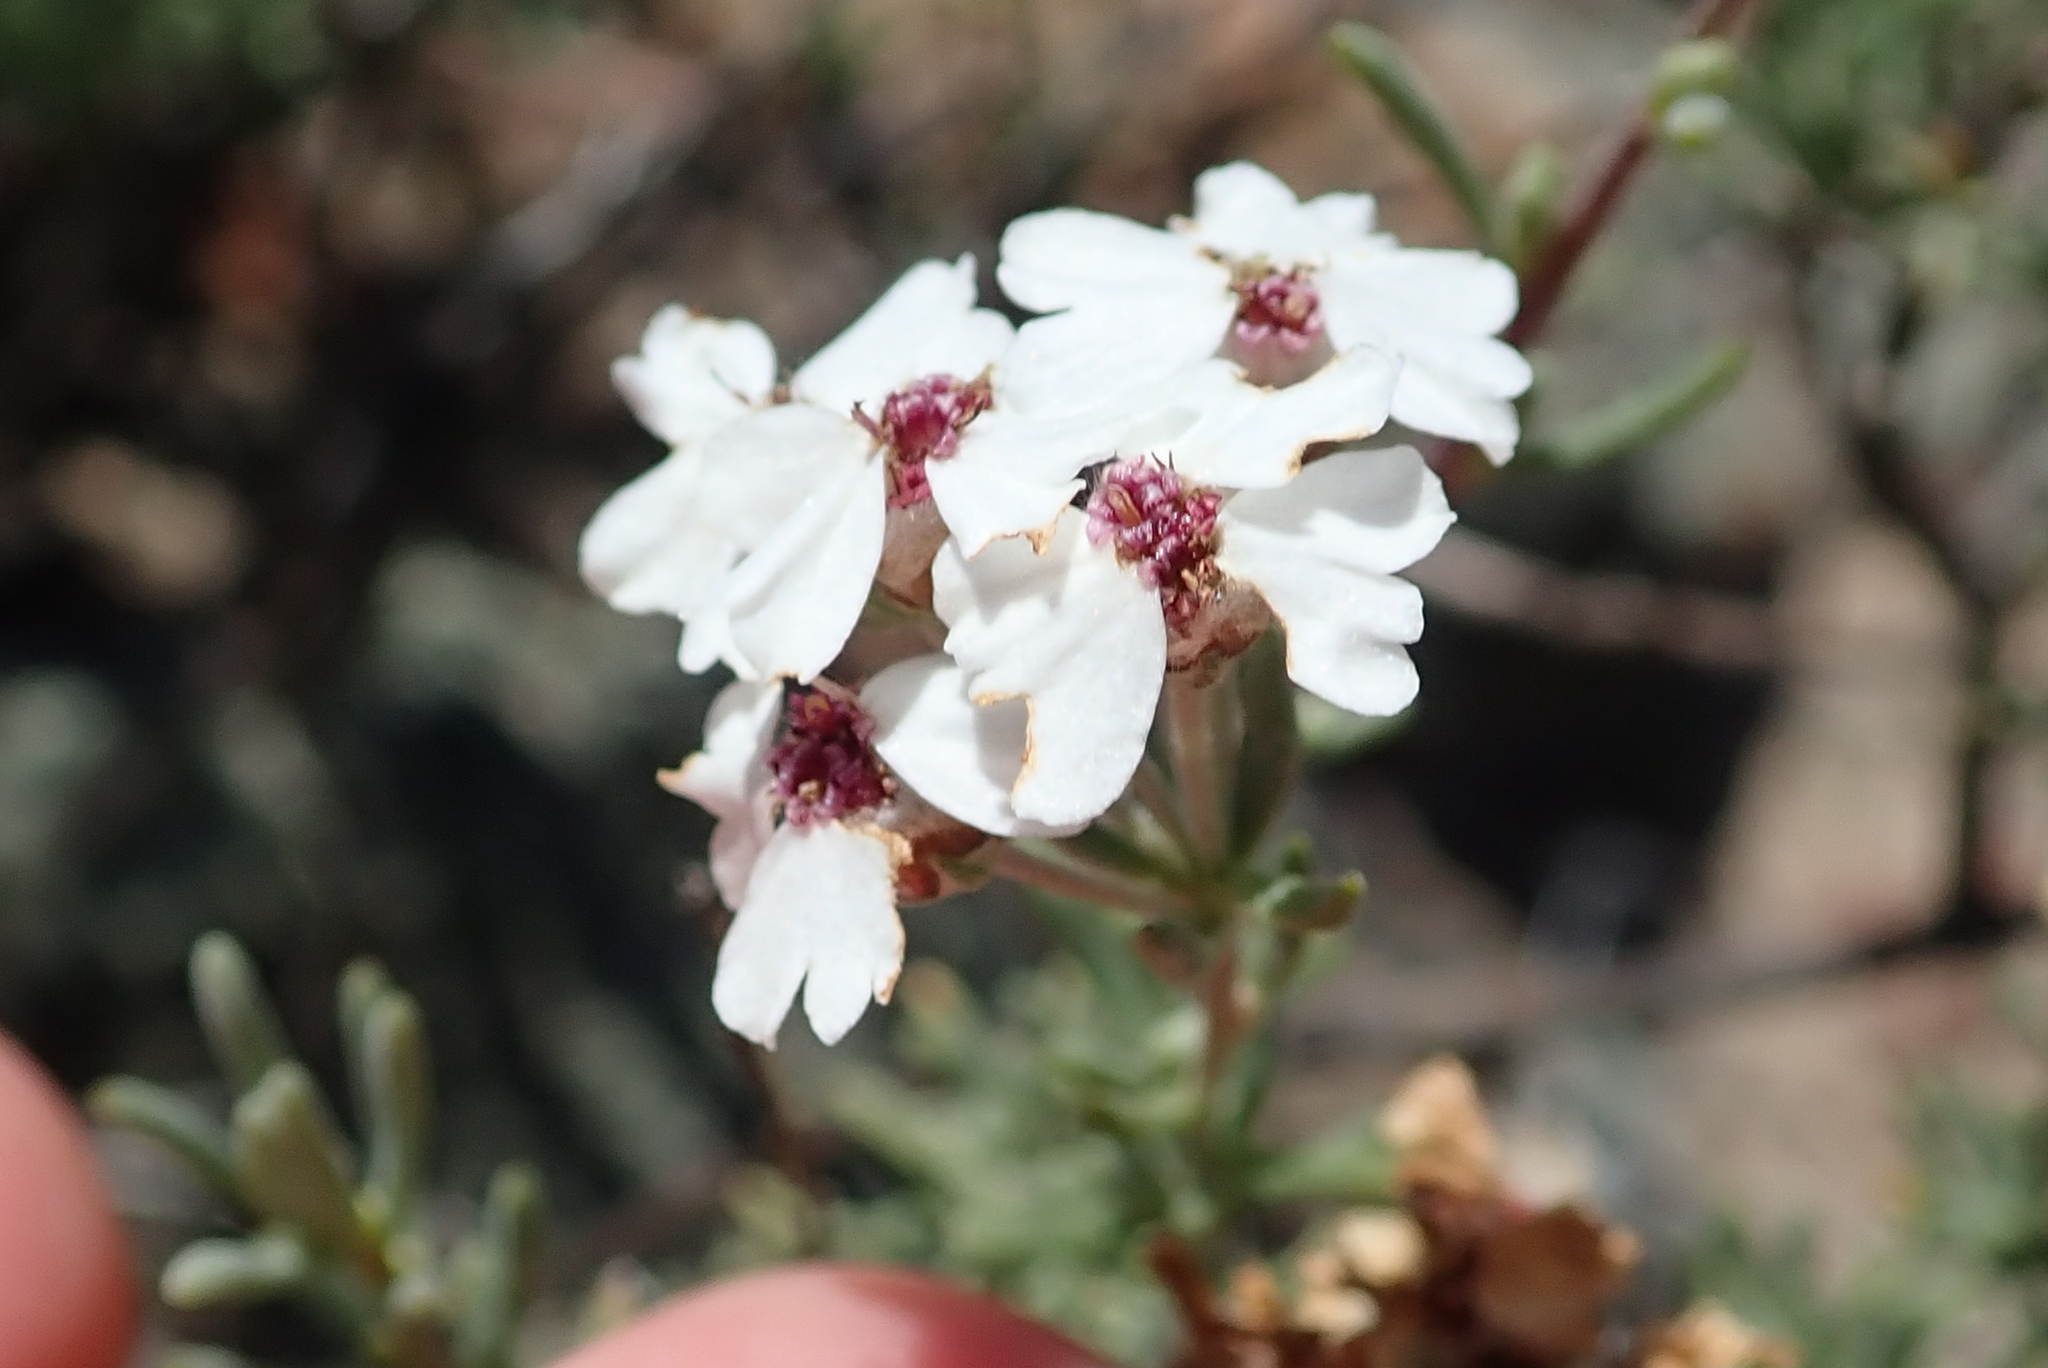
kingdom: Plantae
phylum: Tracheophyta
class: Magnoliopsida
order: Asterales
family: Asteraceae
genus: Eriocephalus
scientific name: Eriocephalus africanus
